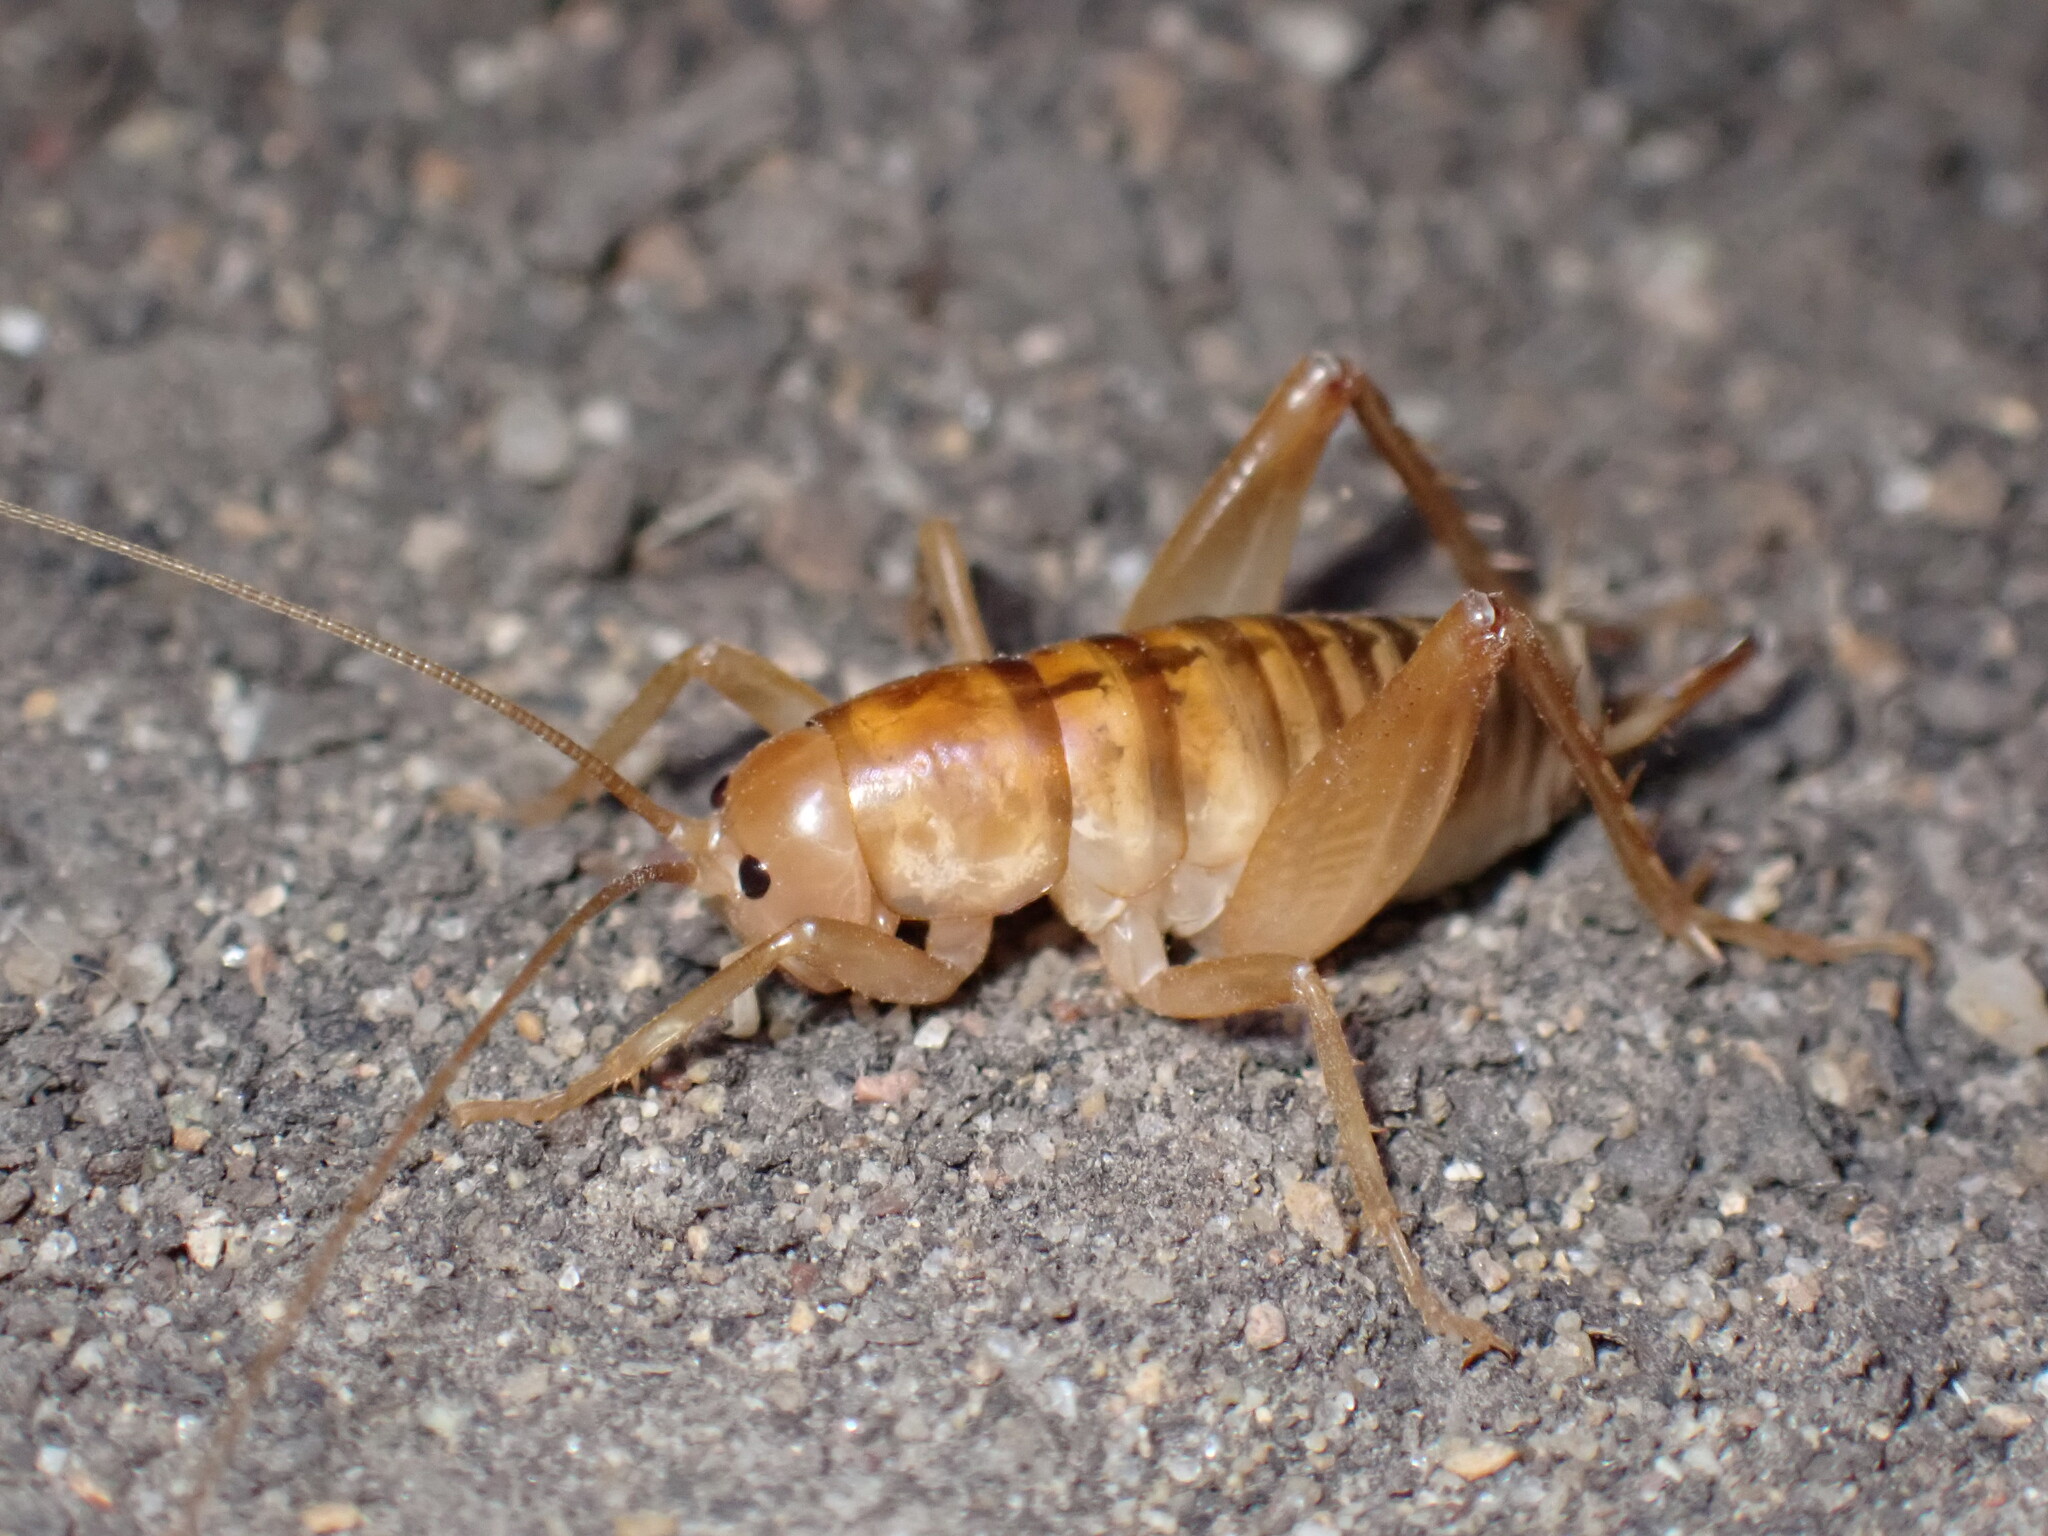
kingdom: Animalia
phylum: Arthropoda
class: Insecta
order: Orthoptera
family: Rhaphidophoridae
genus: Ceuthophilus
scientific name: Ceuthophilus californianus
